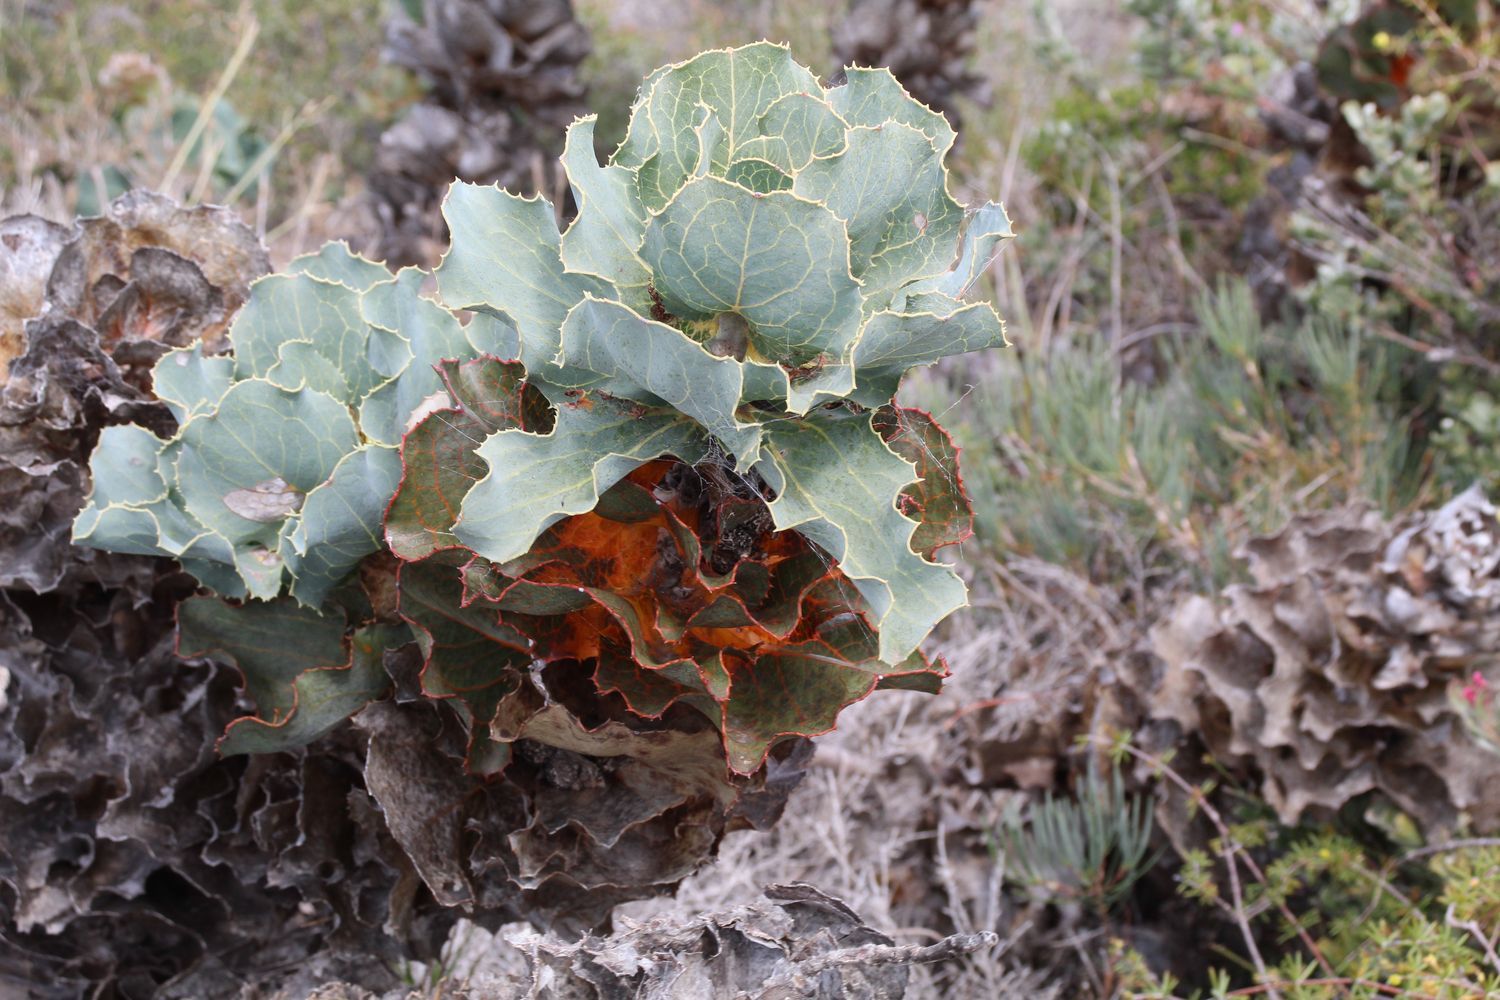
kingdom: Plantae
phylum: Tracheophyta
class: Magnoliopsida
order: Proteales
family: Proteaceae
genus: Hakea
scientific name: Hakea victoria
